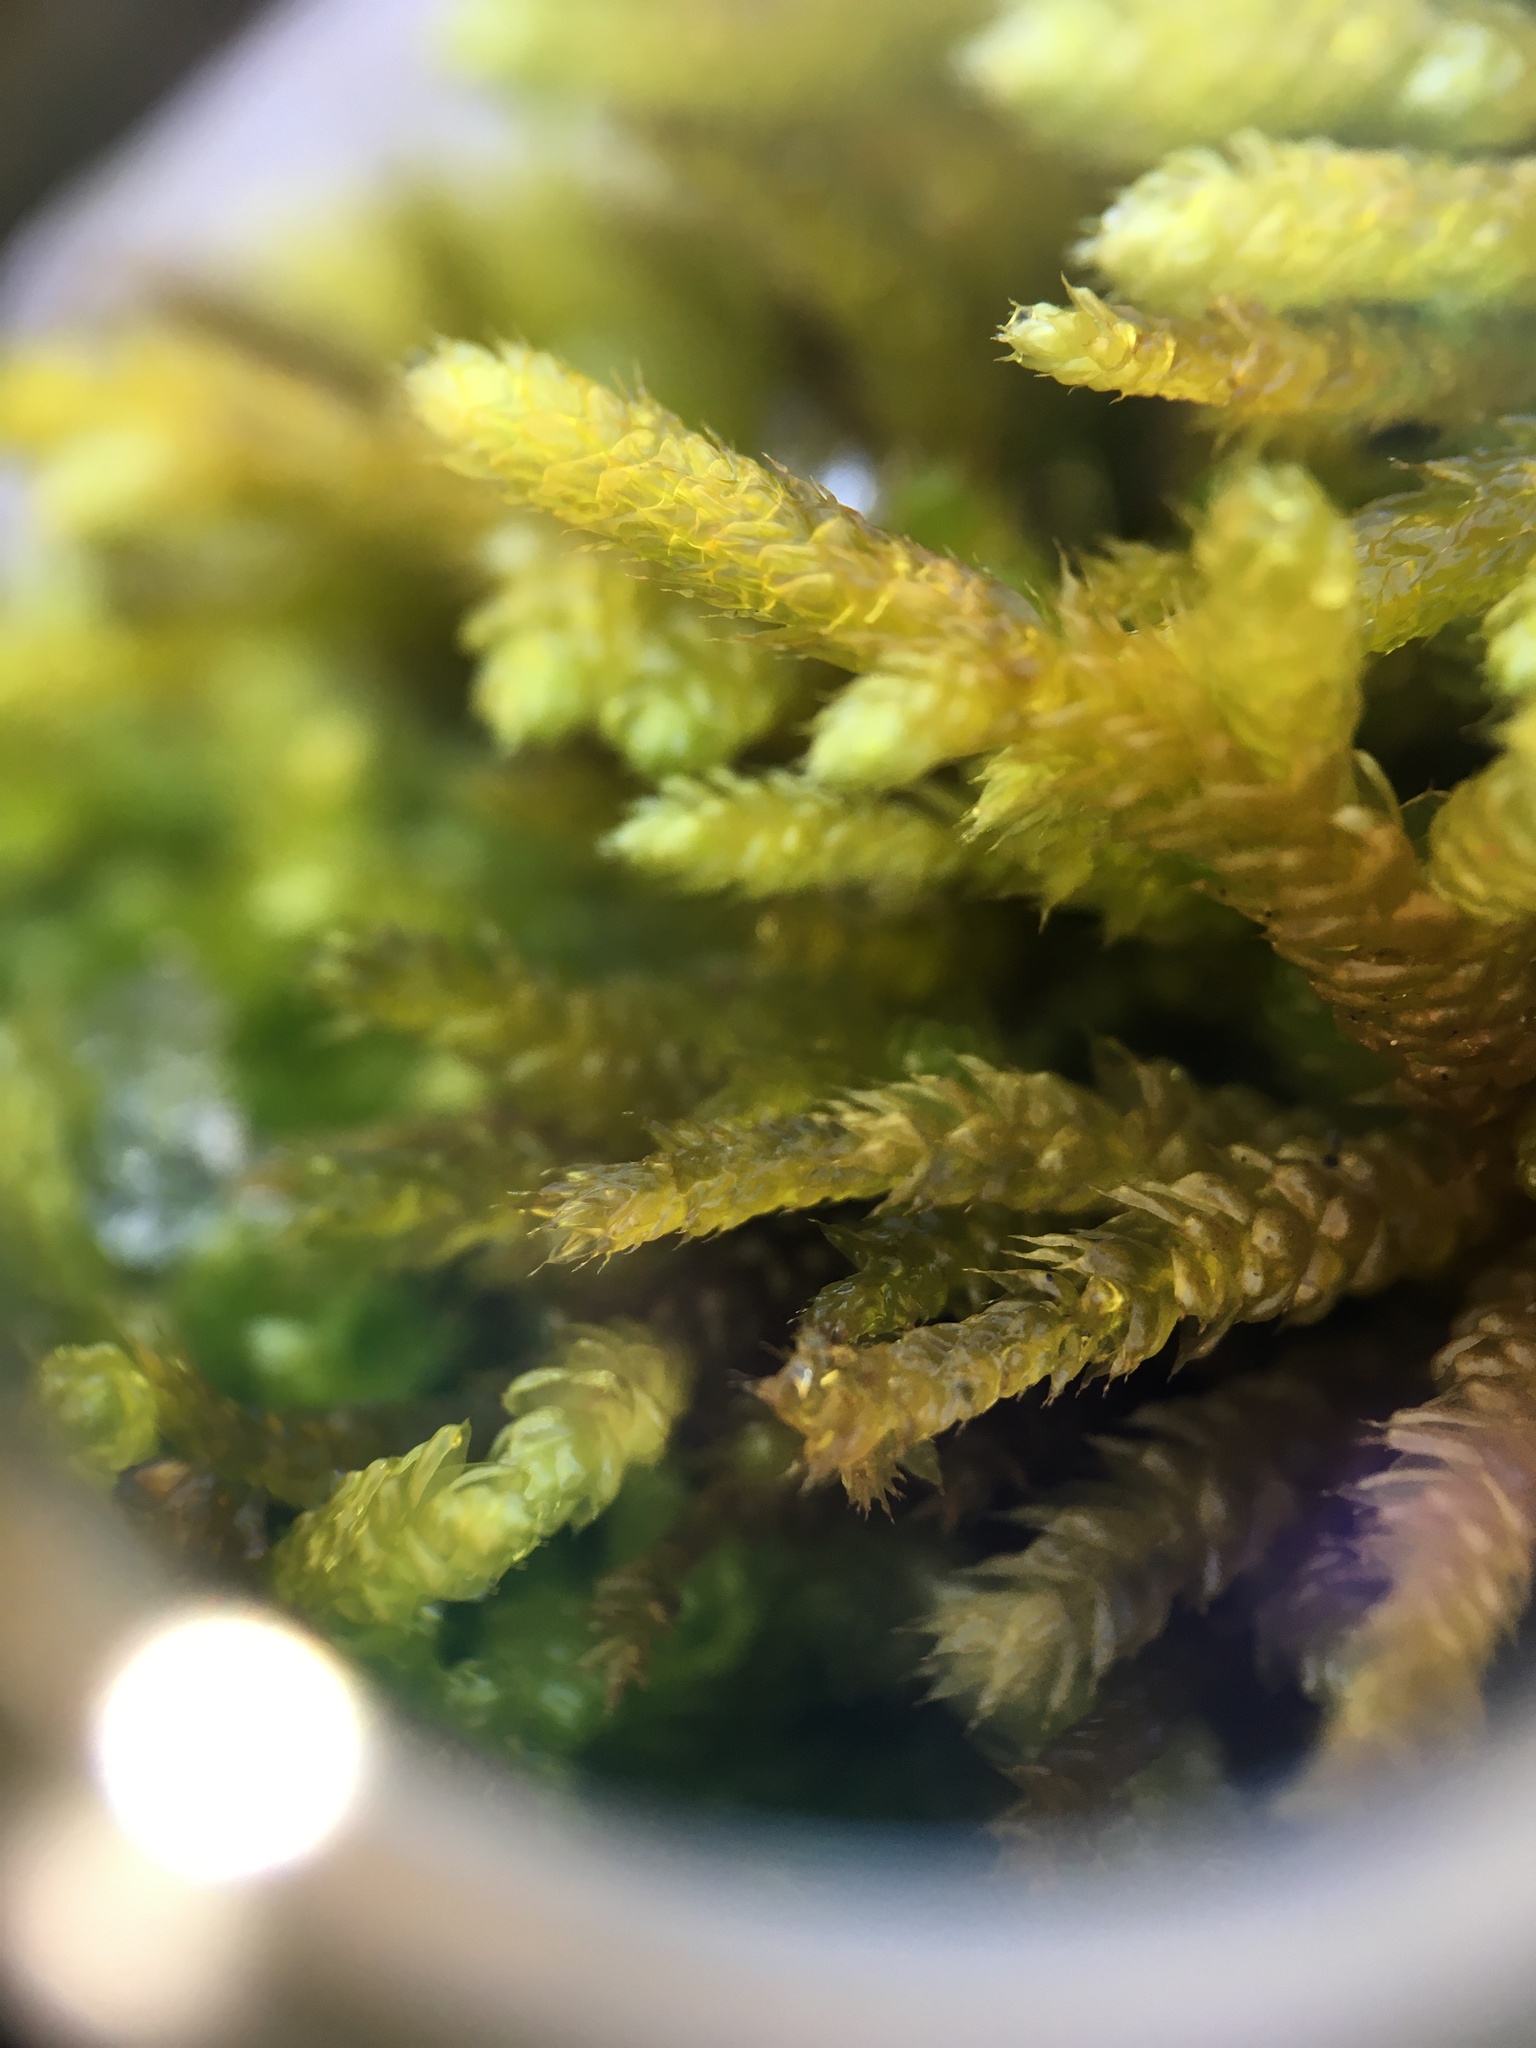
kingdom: Plantae
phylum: Bryophyta
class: Bryopsida
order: Hypnales
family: Brachytheciaceae
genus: Bryoandersonia
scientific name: Bryoandersonia illecebra
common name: Spoon-leaved moss
